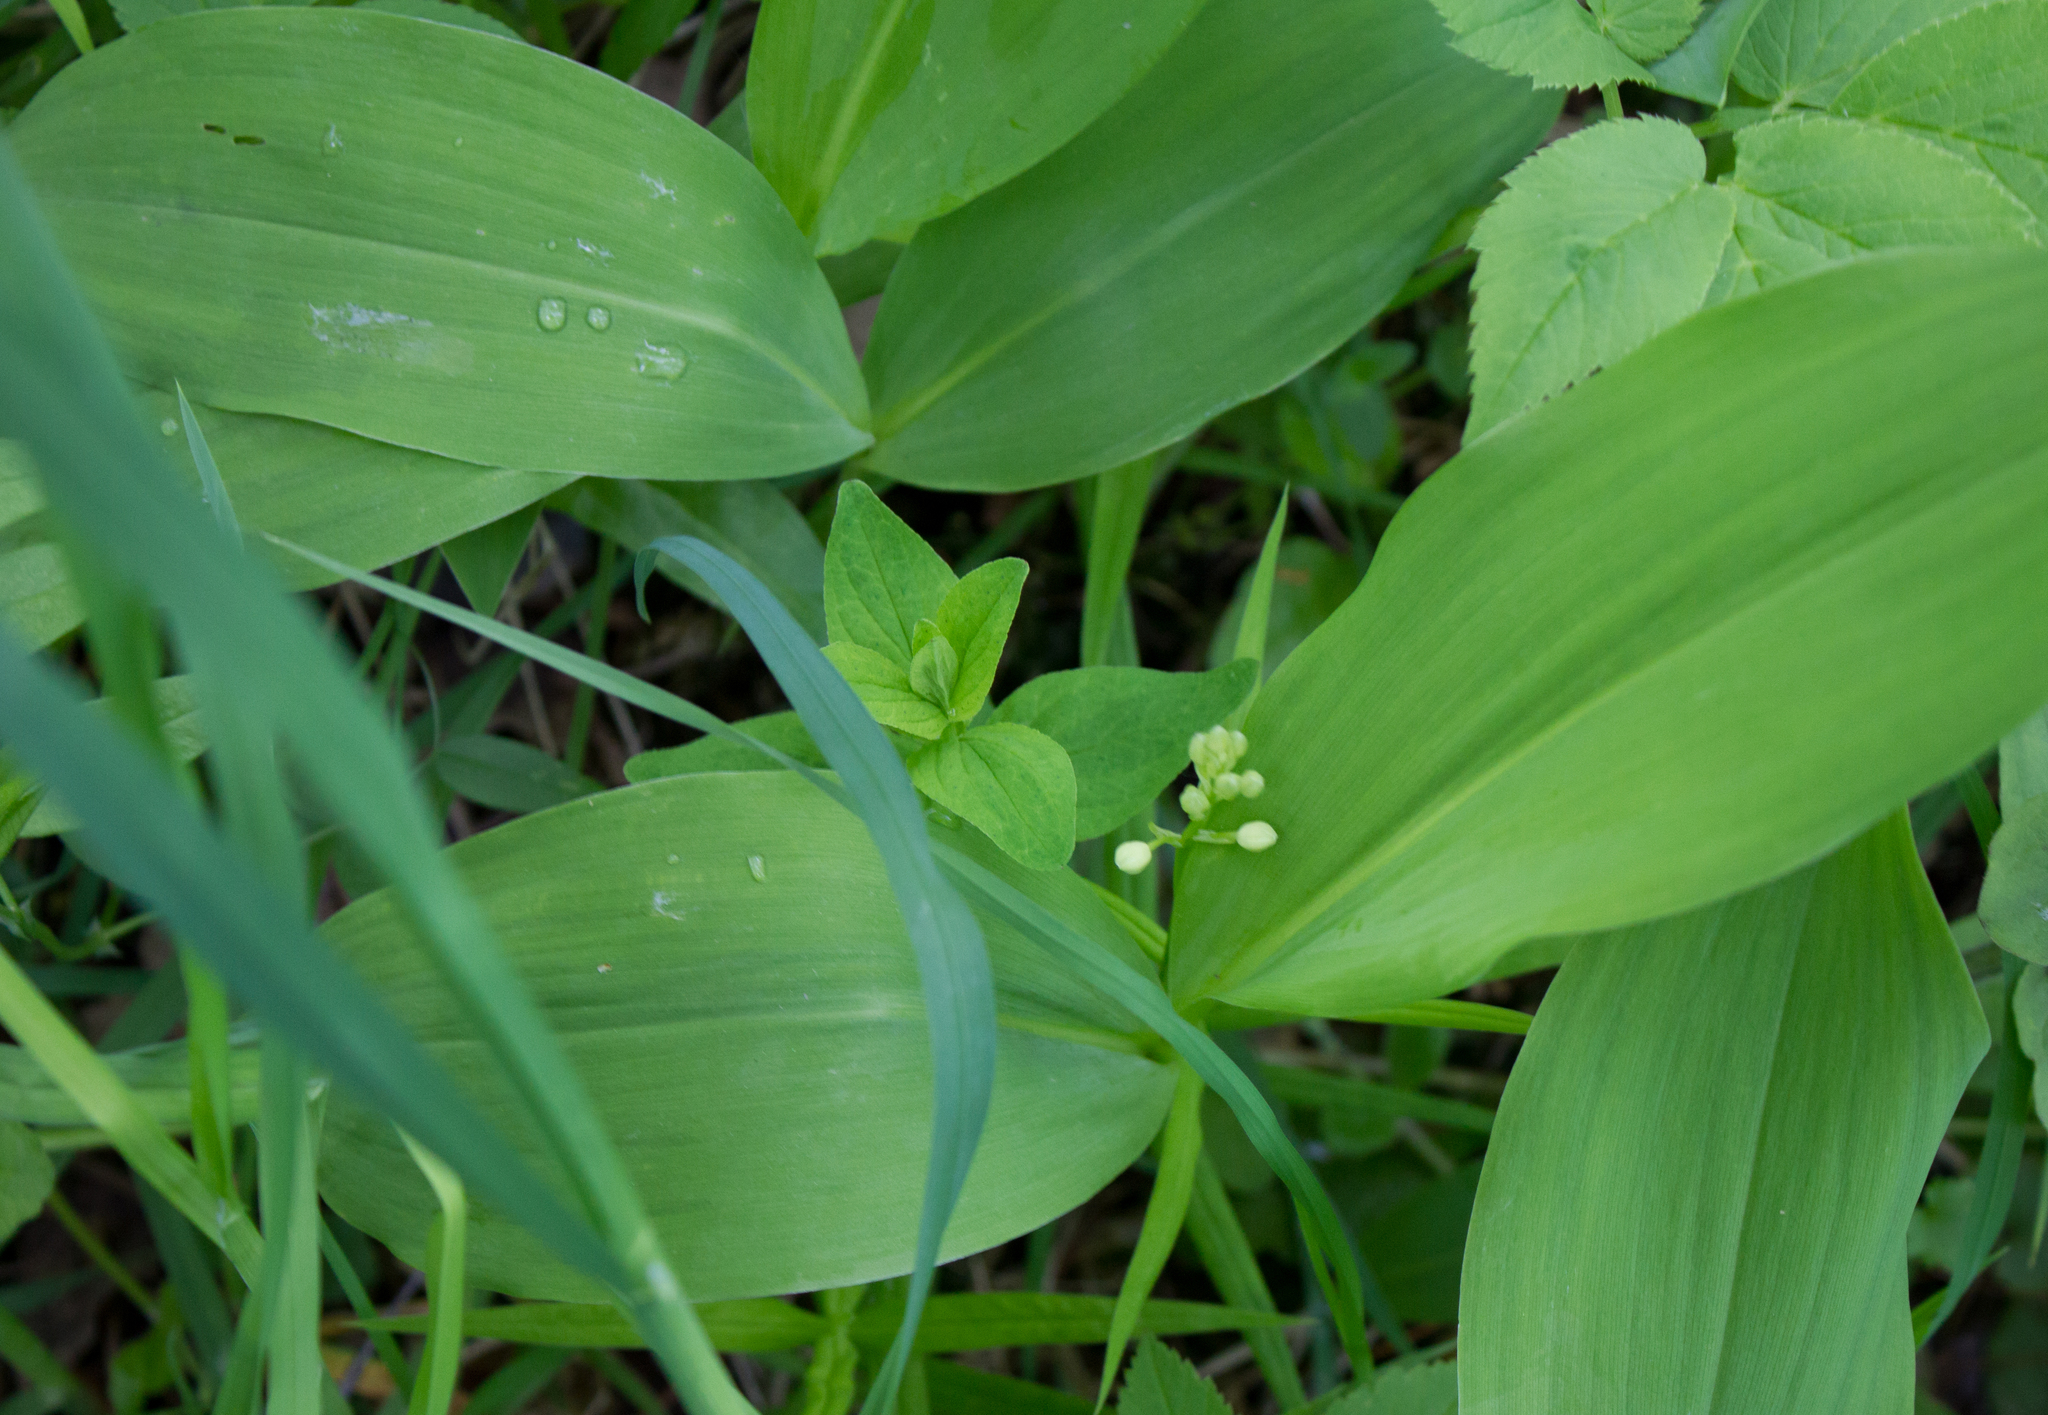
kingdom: Plantae
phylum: Tracheophyta
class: Liliopsida
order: Asparagales
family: Asparagaceae
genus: Convallaria
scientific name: Convallaria majalis
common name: Lily-of-the-valley
